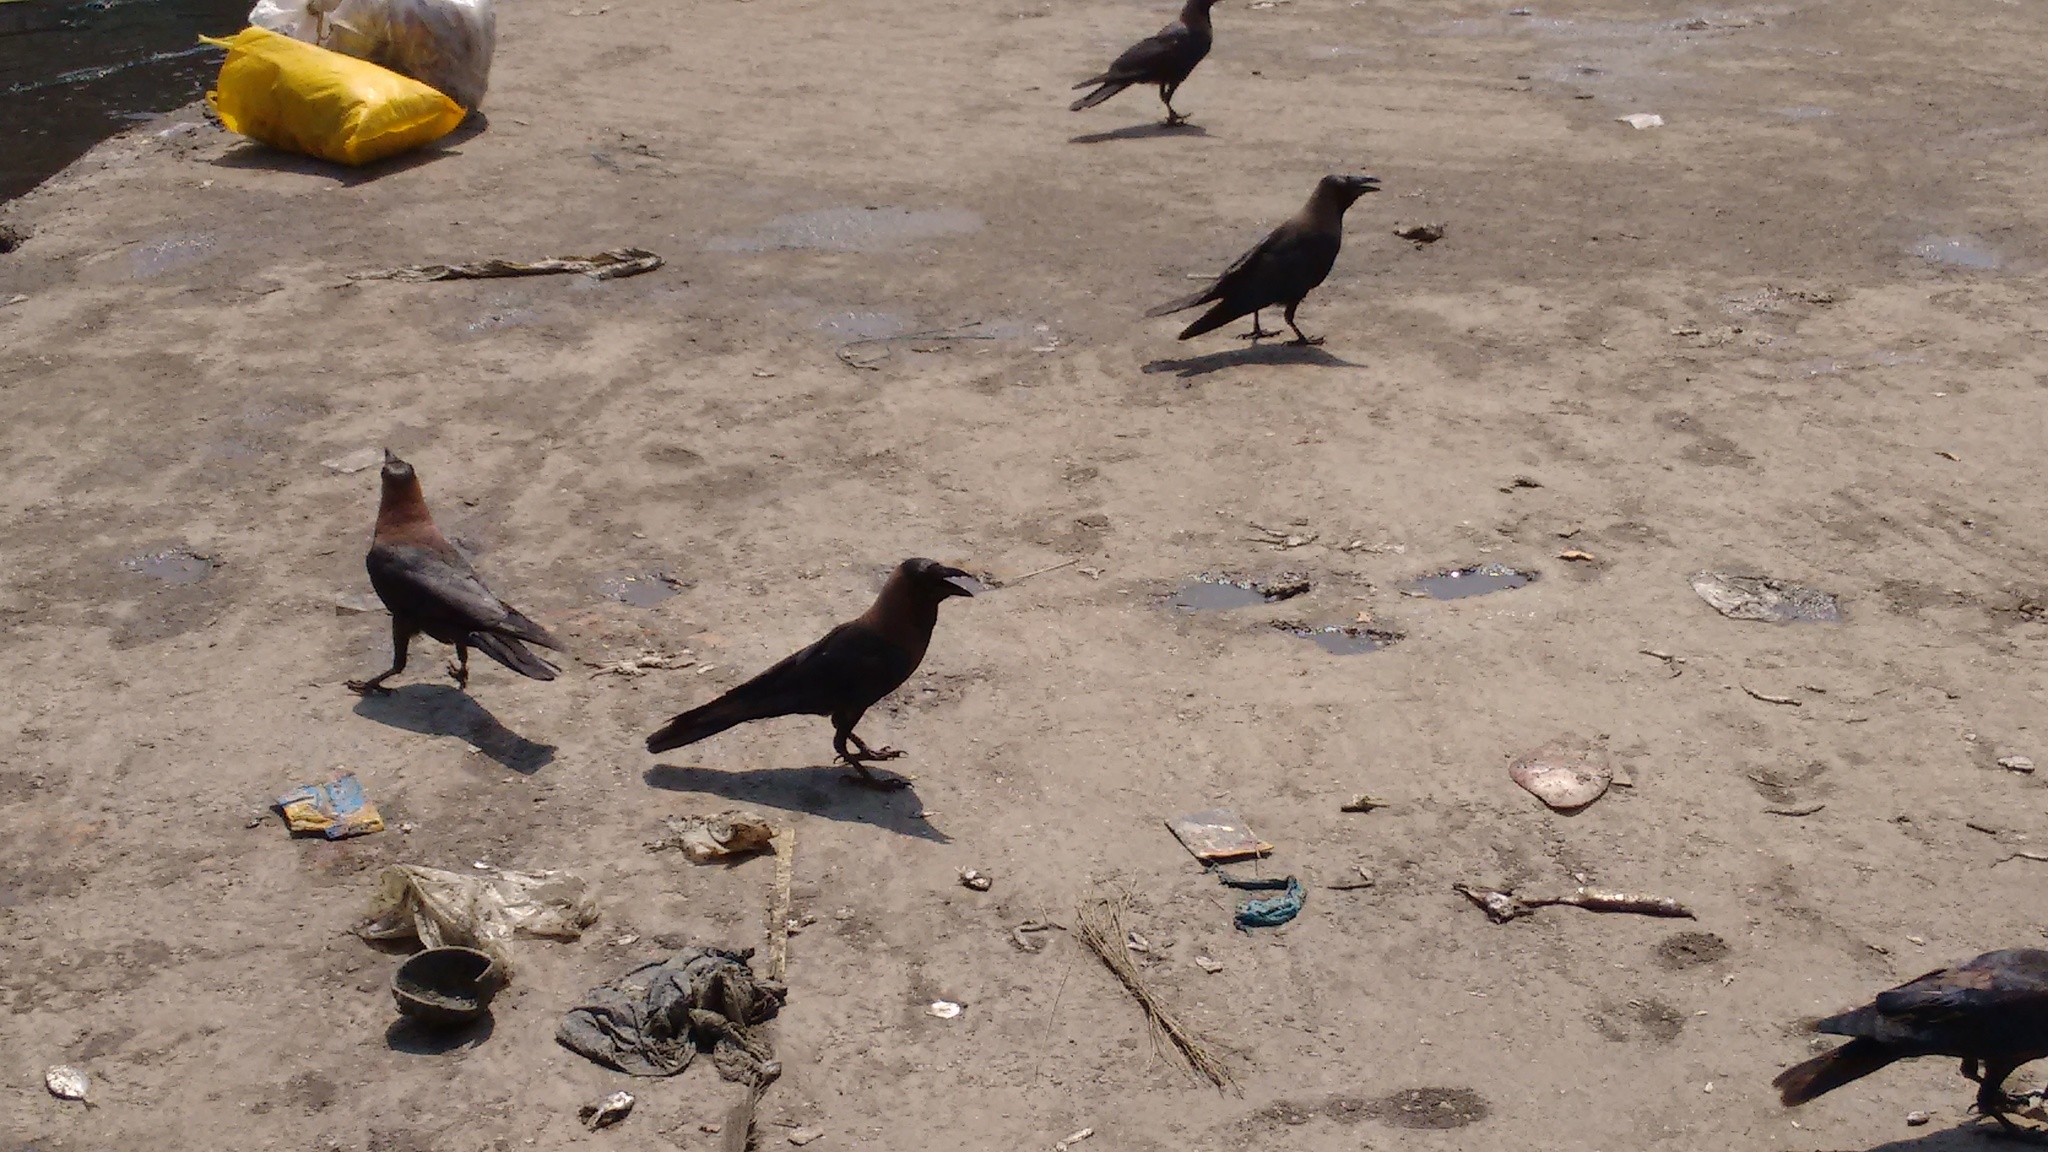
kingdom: Animalia
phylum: Chordata
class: Aves
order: Passeriformes
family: Corvidae
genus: Corvus
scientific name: Corvus splendens
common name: House crow
